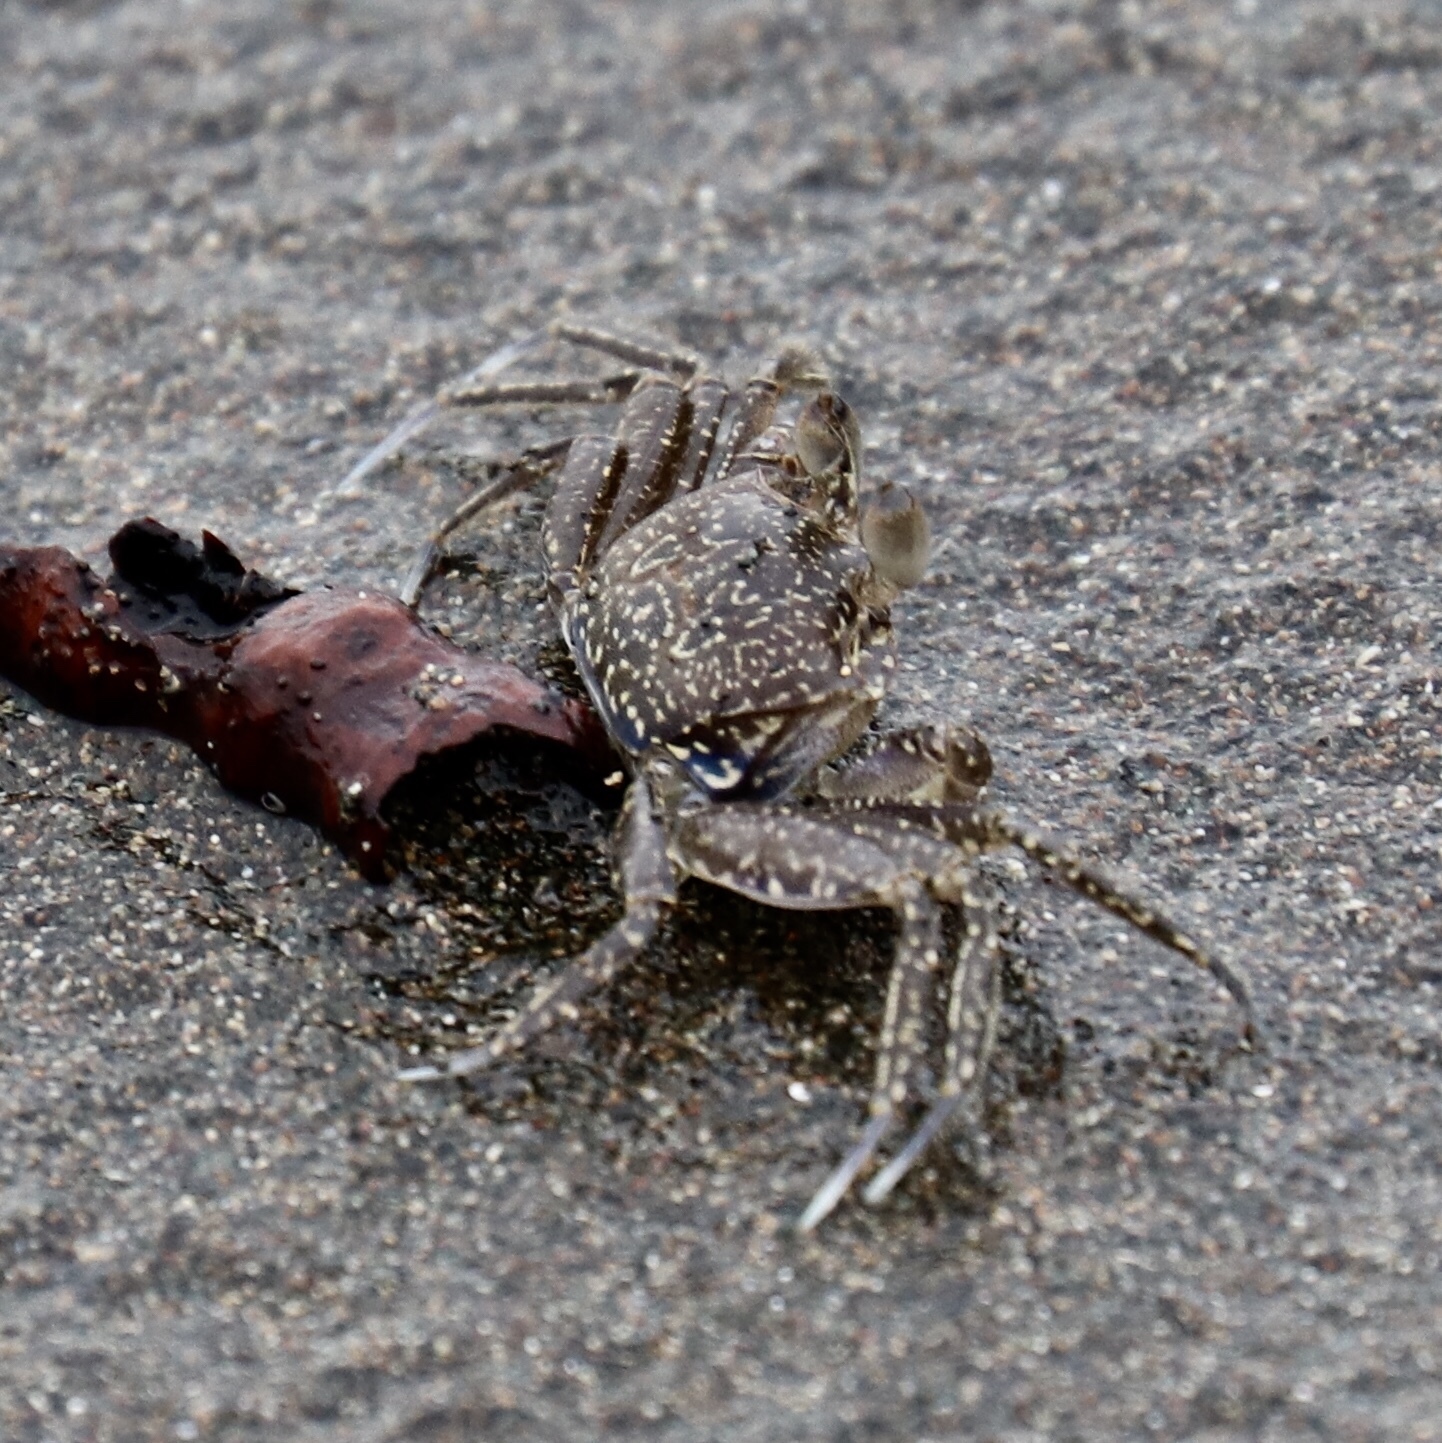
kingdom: Animalia
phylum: Arthropoda
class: Malacostraca
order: Decapoda
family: Ocypodidae
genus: Ocypode
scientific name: Ocypode gaudichaudii
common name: Pacific ghost crab
